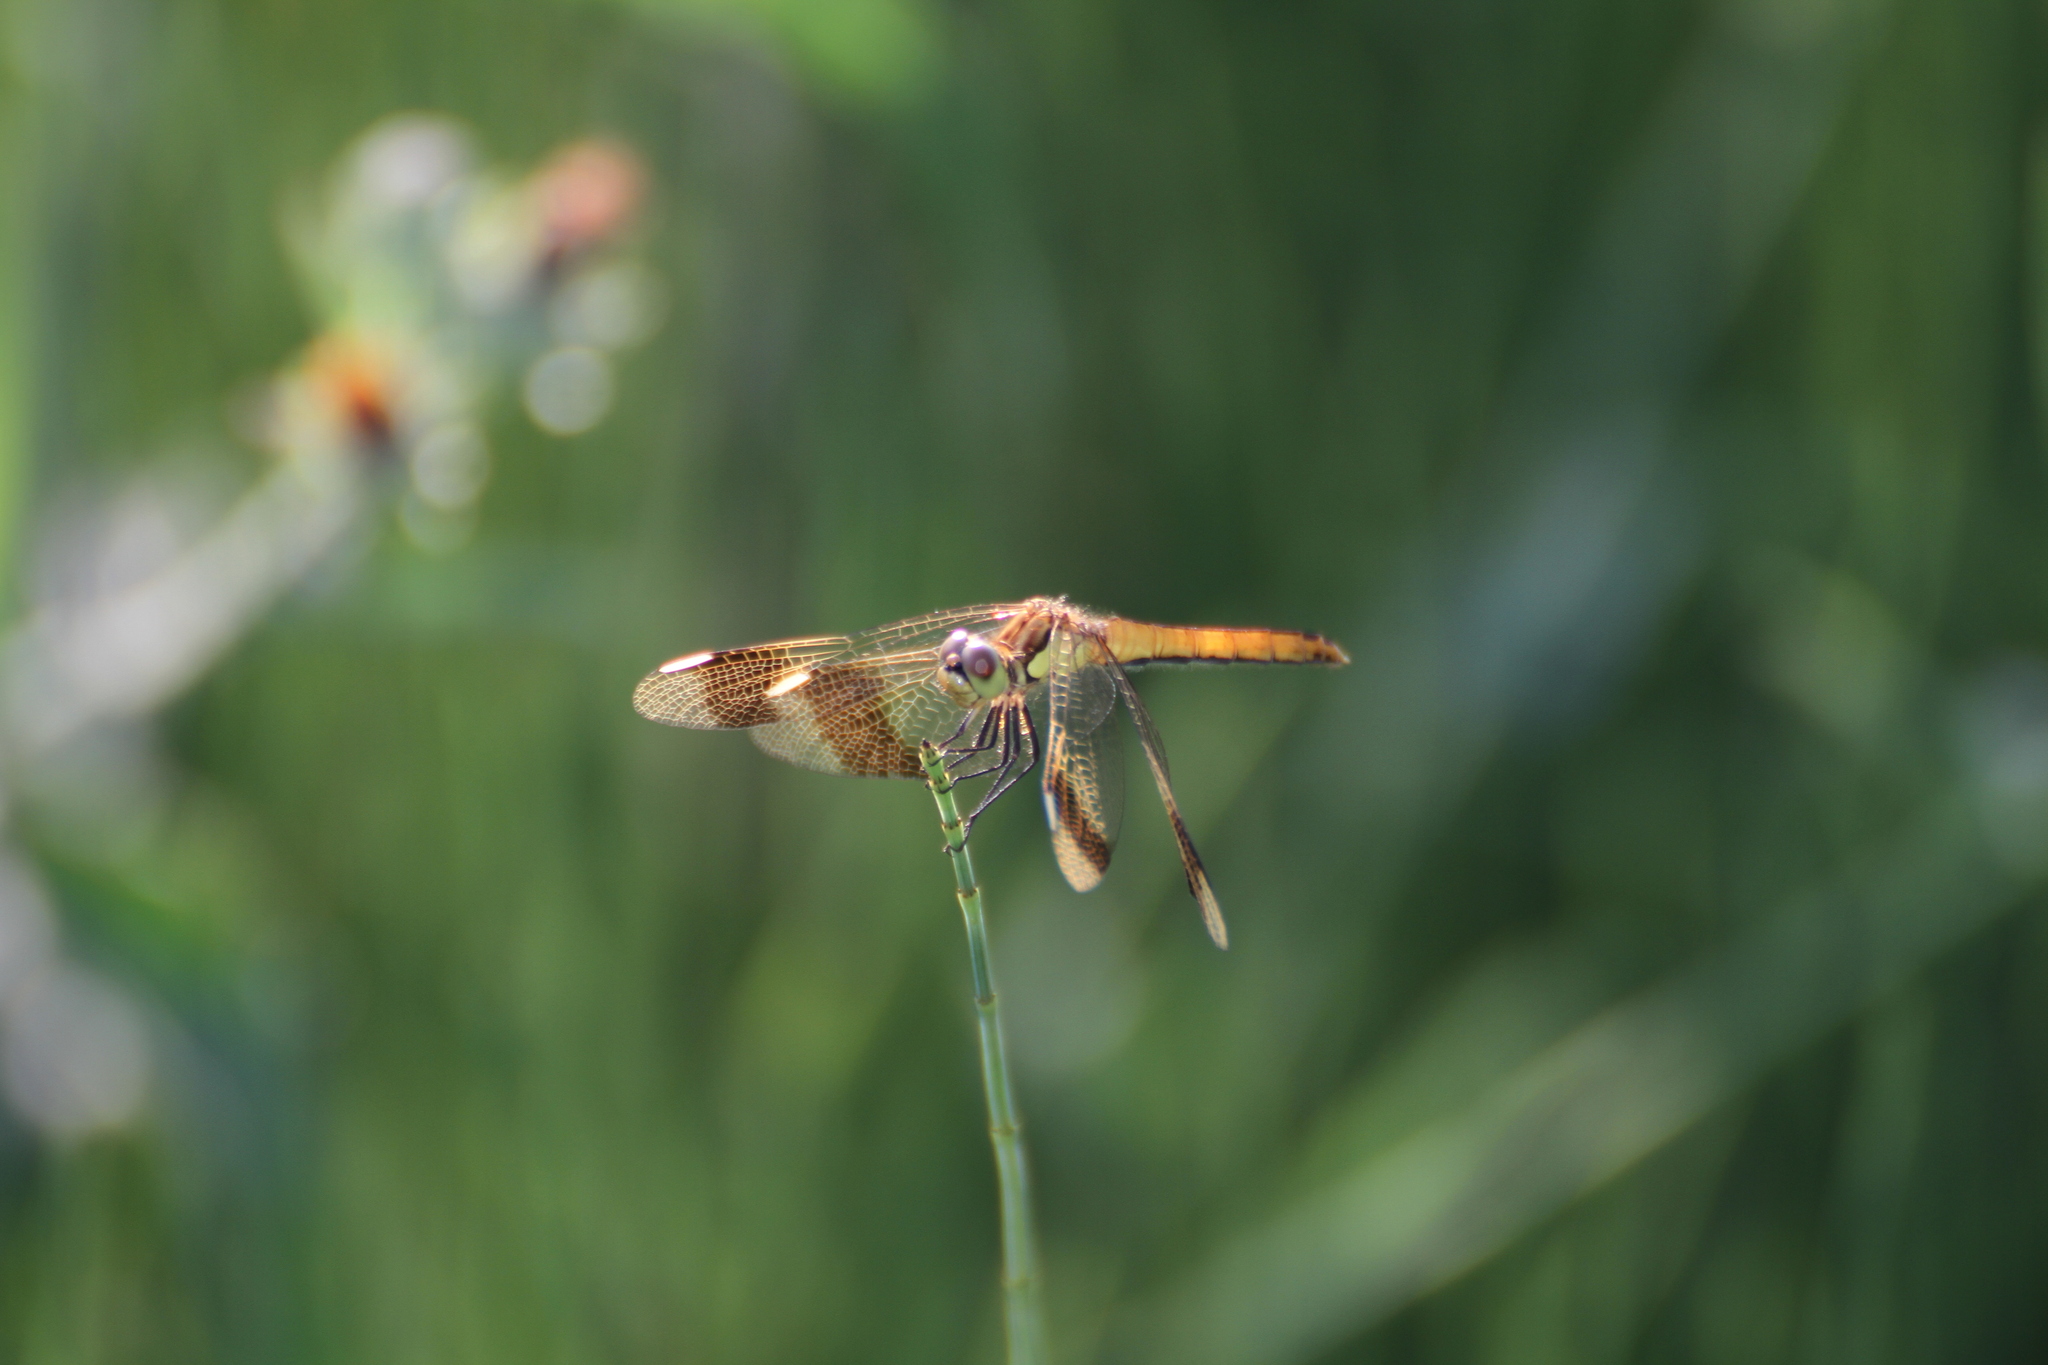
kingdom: Animalia
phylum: Arthropoda
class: Insecta
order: Odonata
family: Libellulidae
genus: Sympetrum
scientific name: Sympetrum pedemontanum
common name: Banded darter
